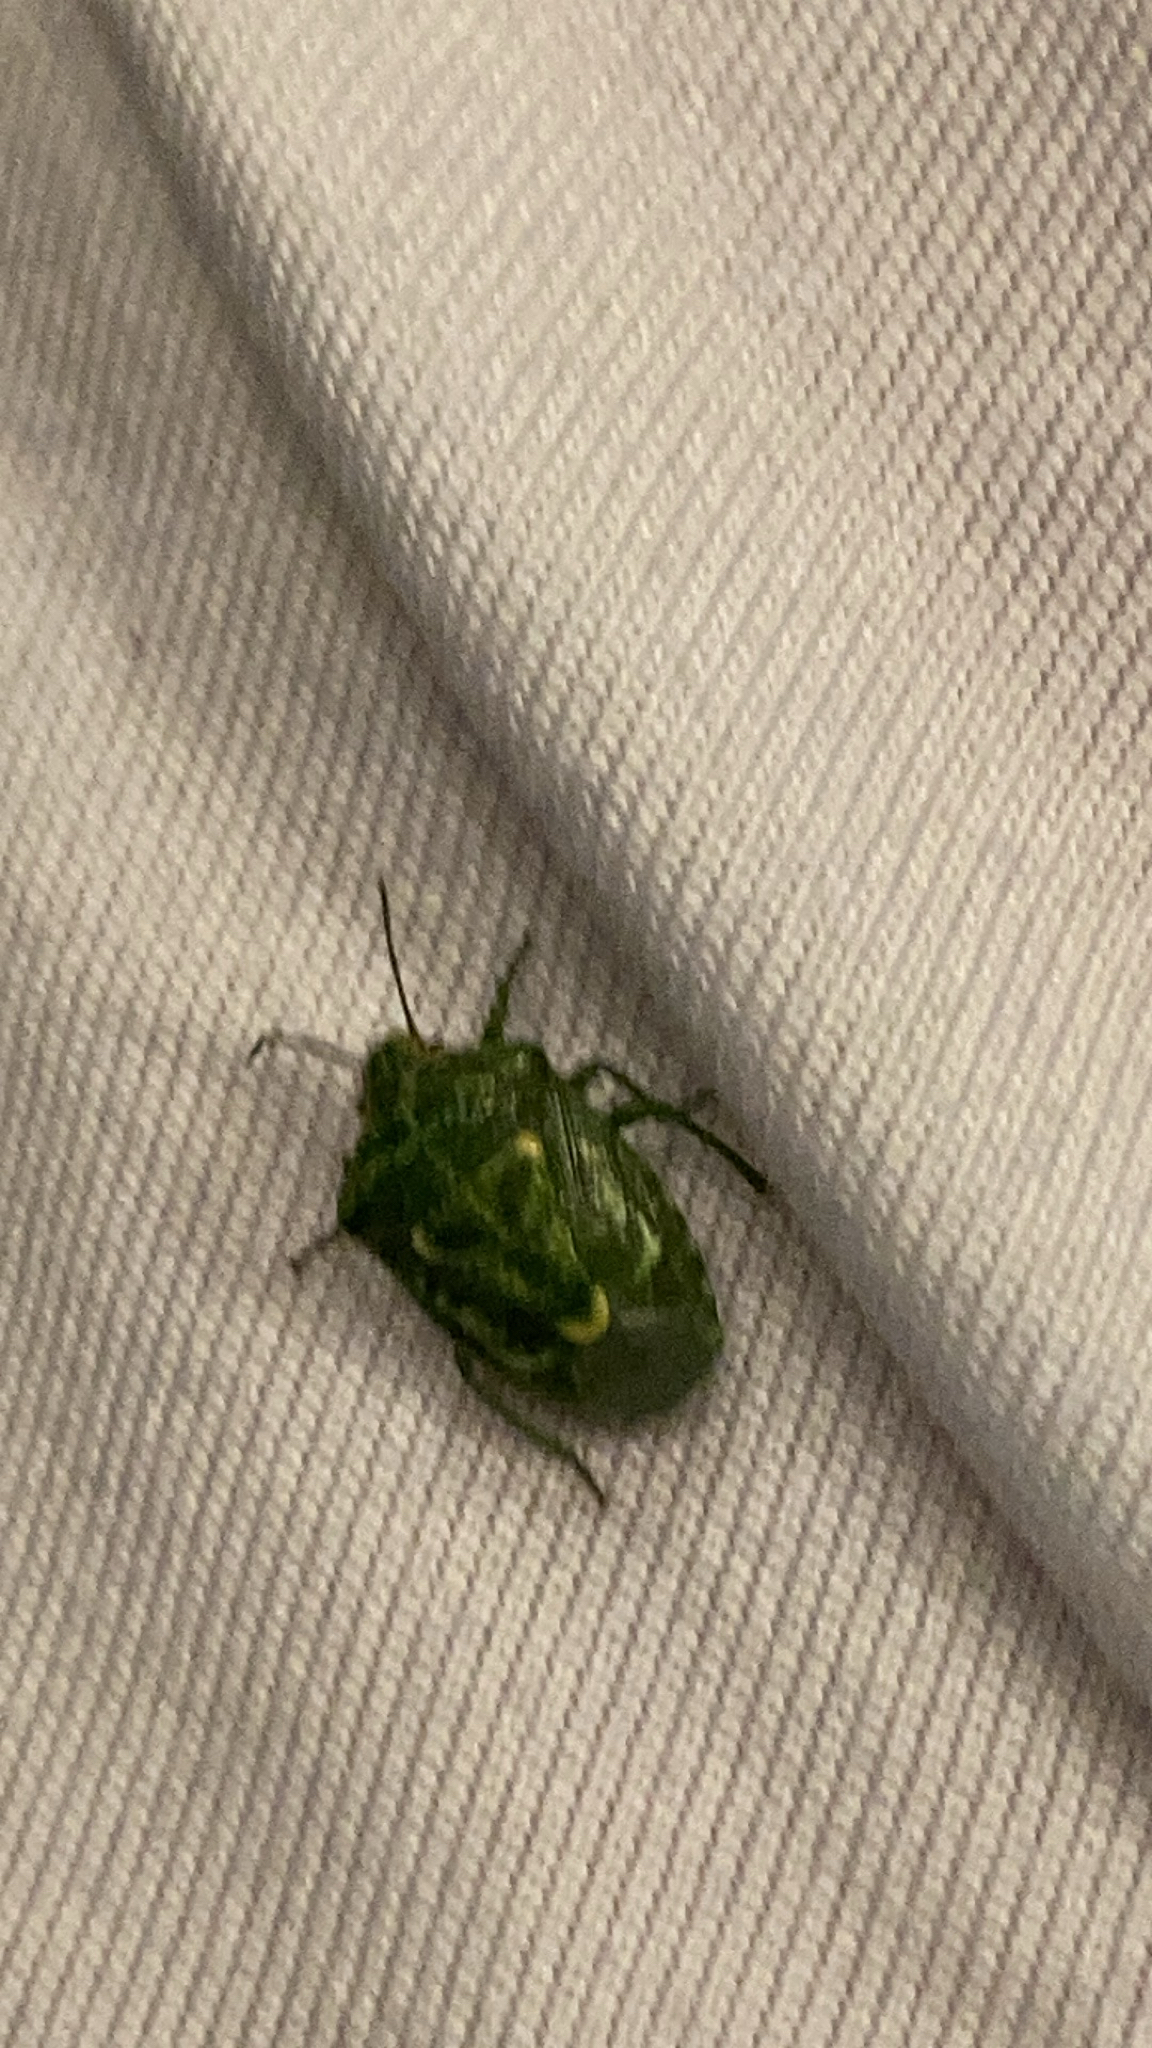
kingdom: Animalia
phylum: Arthropoda
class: Insecta
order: Hemiptera
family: Pentatomidae
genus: Banasa
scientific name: Banasa euchlora
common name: Cedar berry bug
